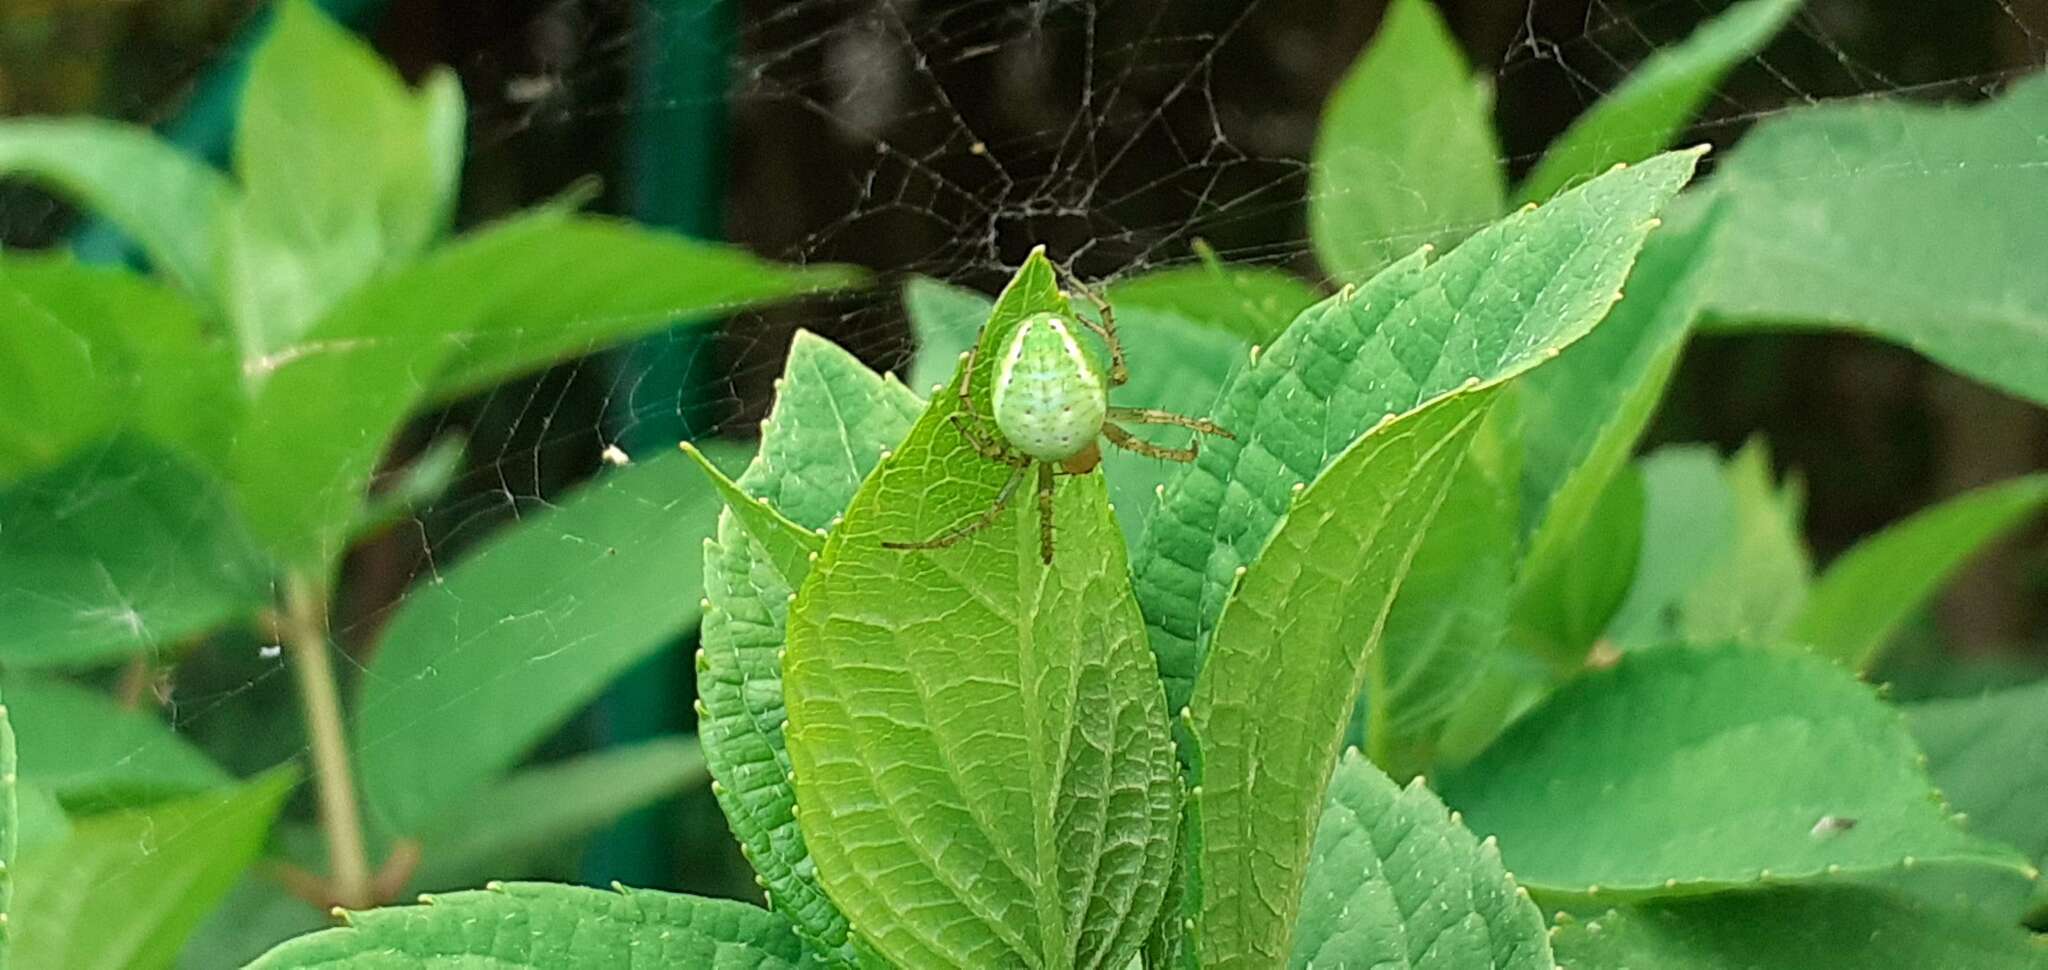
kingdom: Animalia
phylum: Arthropoda
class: Arachnida
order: Araneae
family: Araneidae
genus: Araniella
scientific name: Araniella
